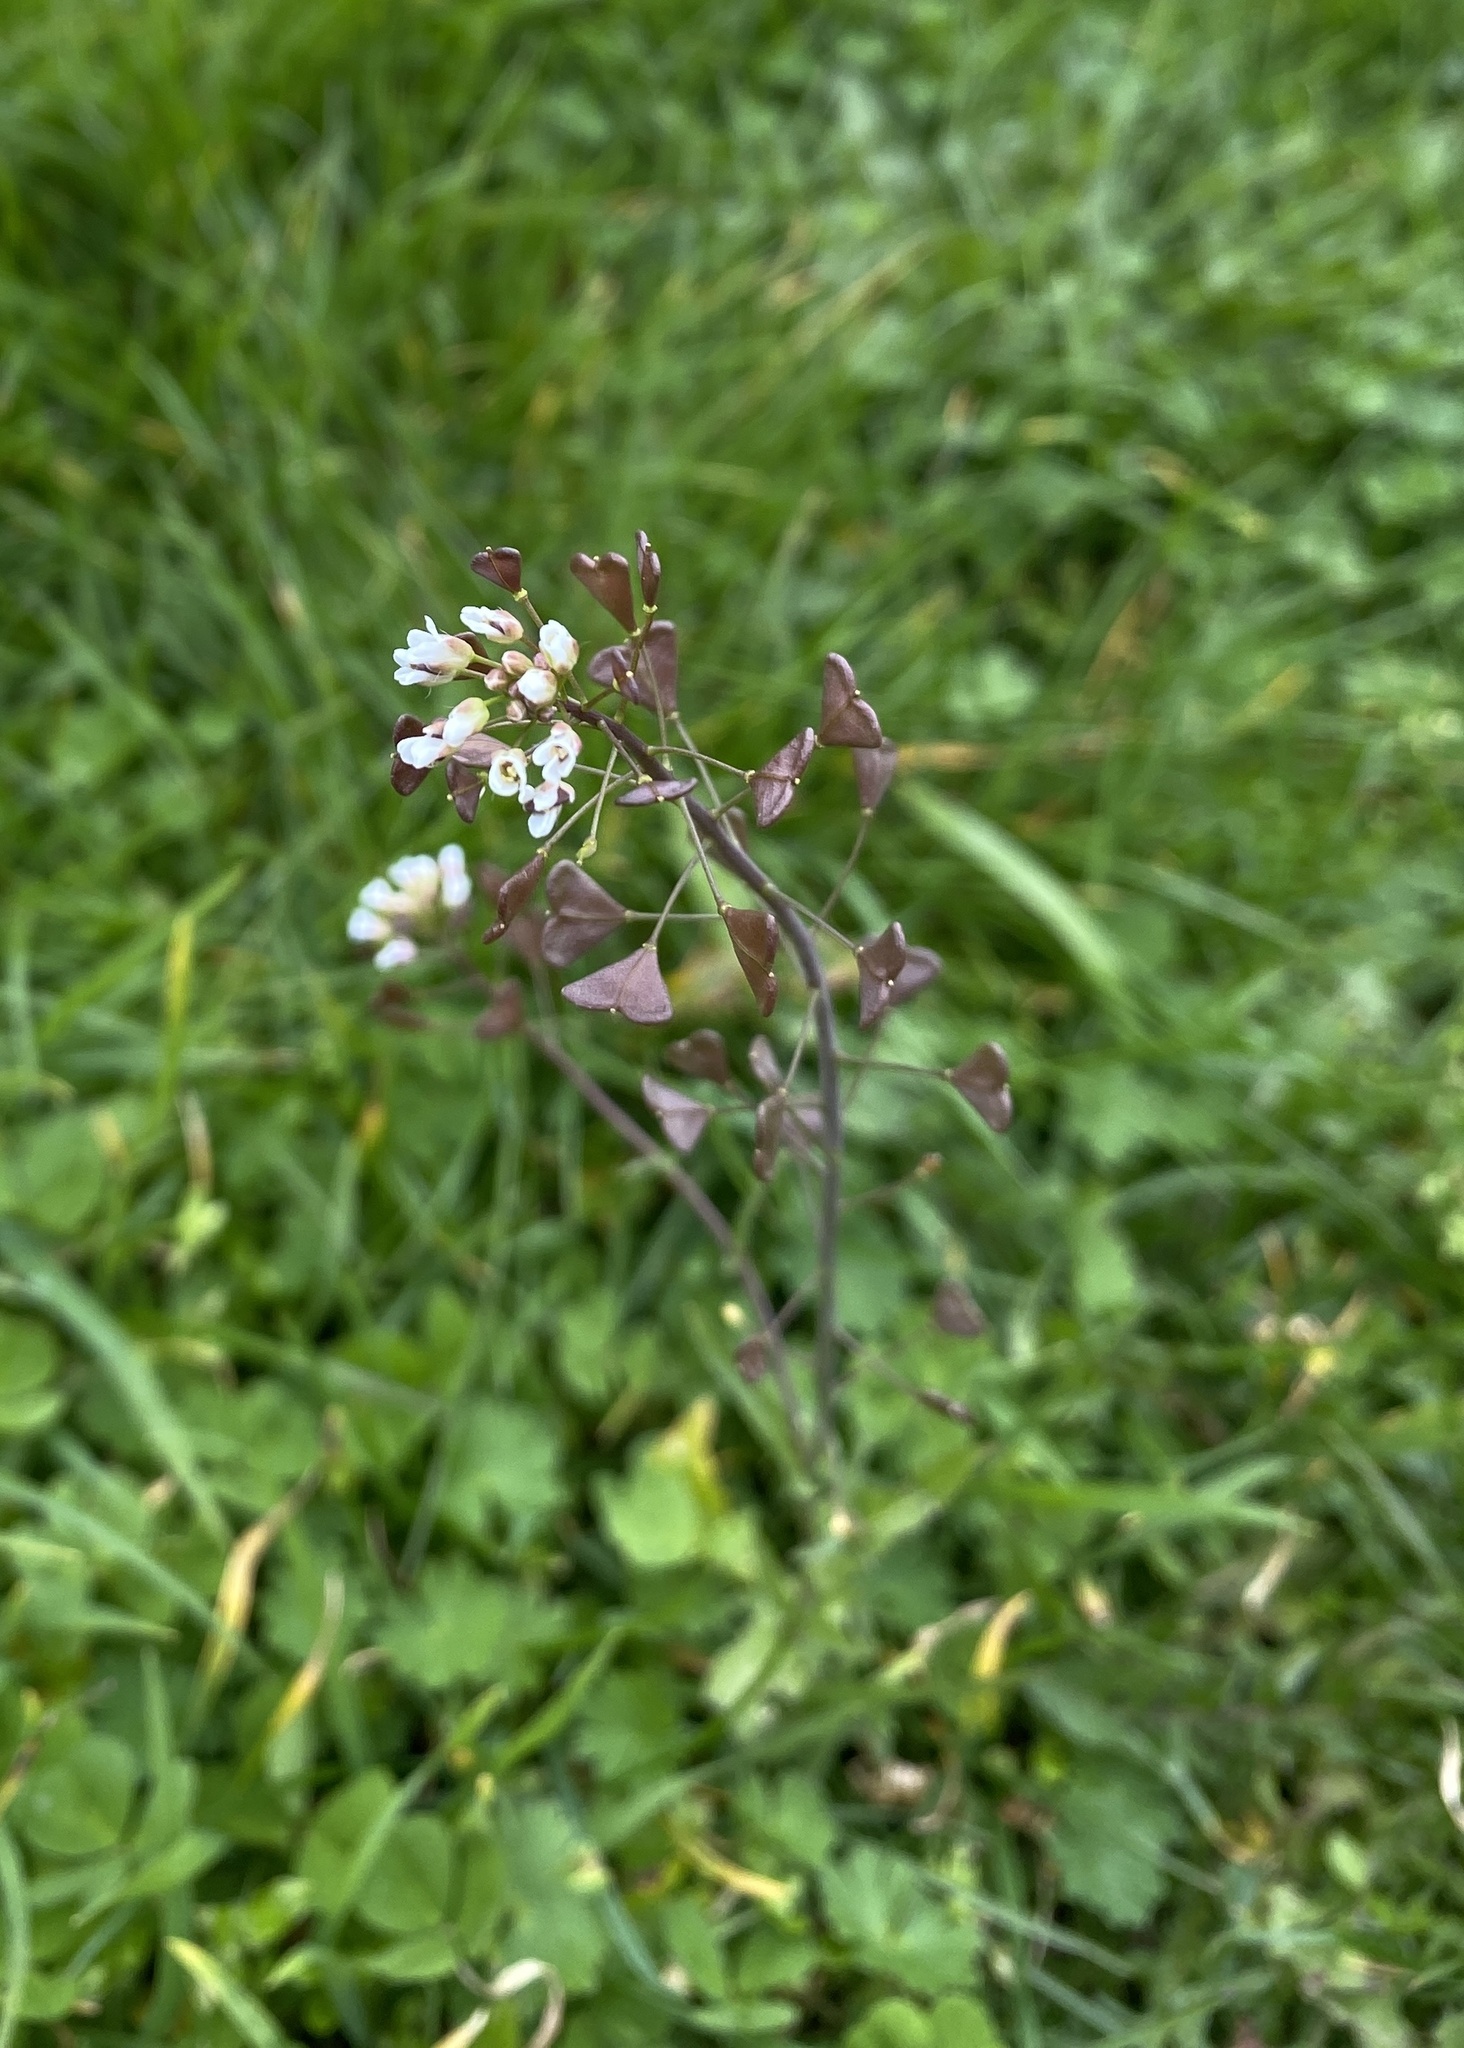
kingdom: Plantae
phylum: Tracheophyta
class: Magnoliopsida
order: Brassicales
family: Brassicaceae
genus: Capsella
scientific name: Capsella bursa-pastoris
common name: Shepherd's purse
